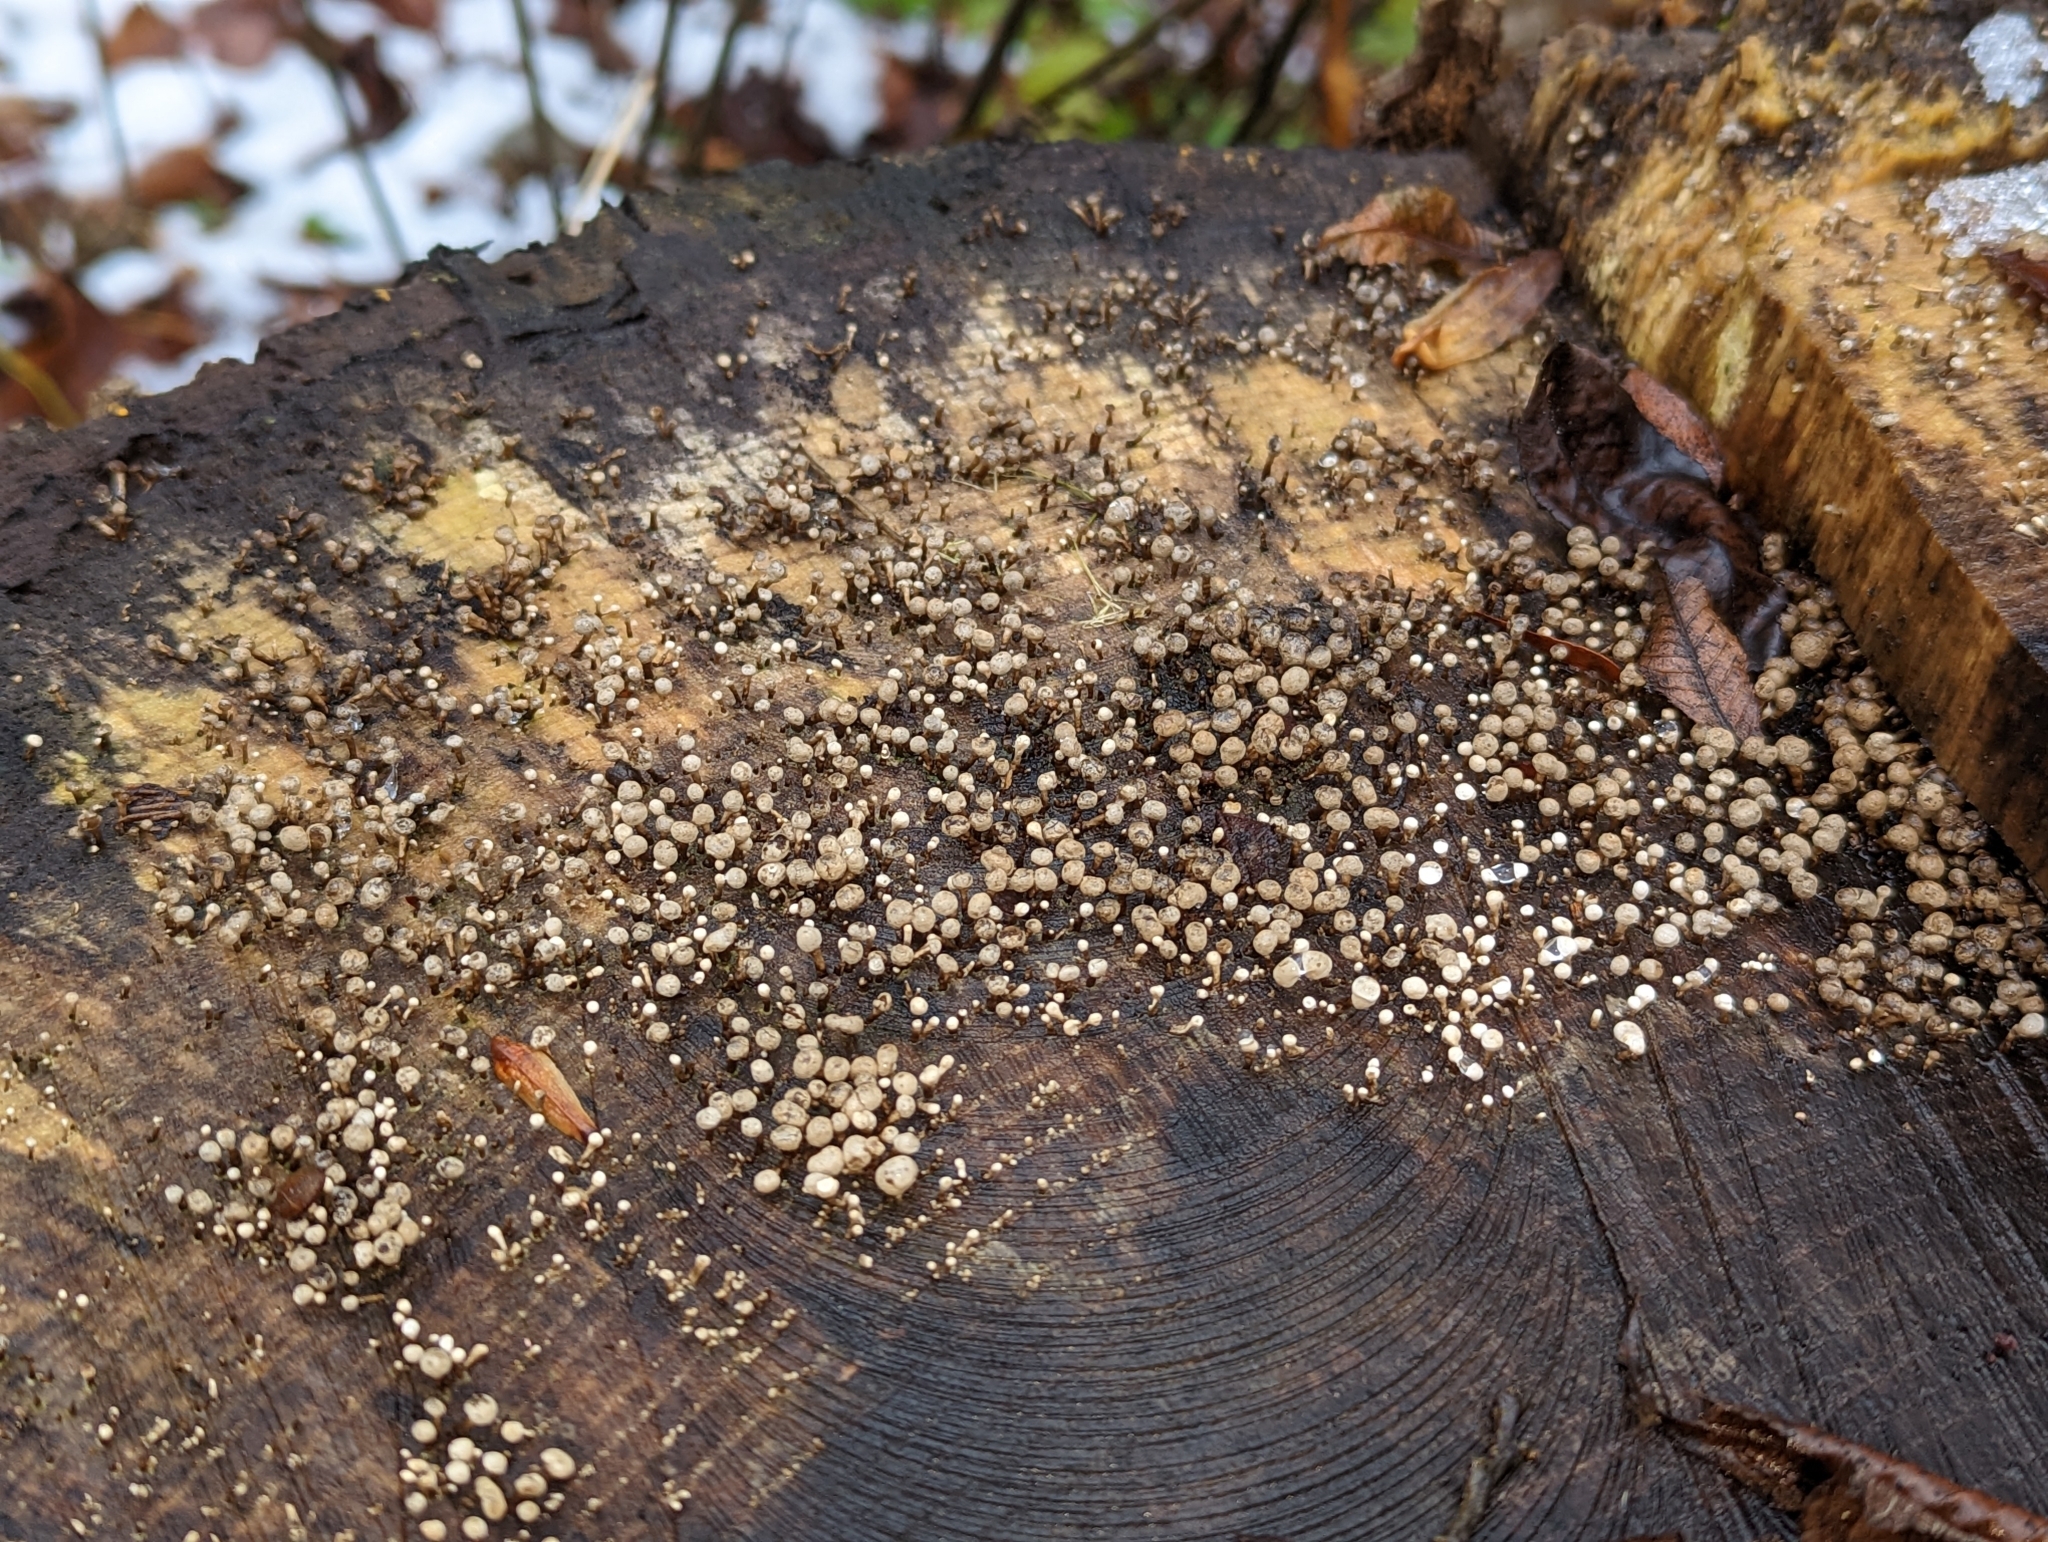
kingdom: Fungi
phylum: Basidiomycota
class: Atractiellomycetes
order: Atractiellales
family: Phleogenaceae
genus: Phleogena
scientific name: Phleogena faginea
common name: Fenugreek stalkball
